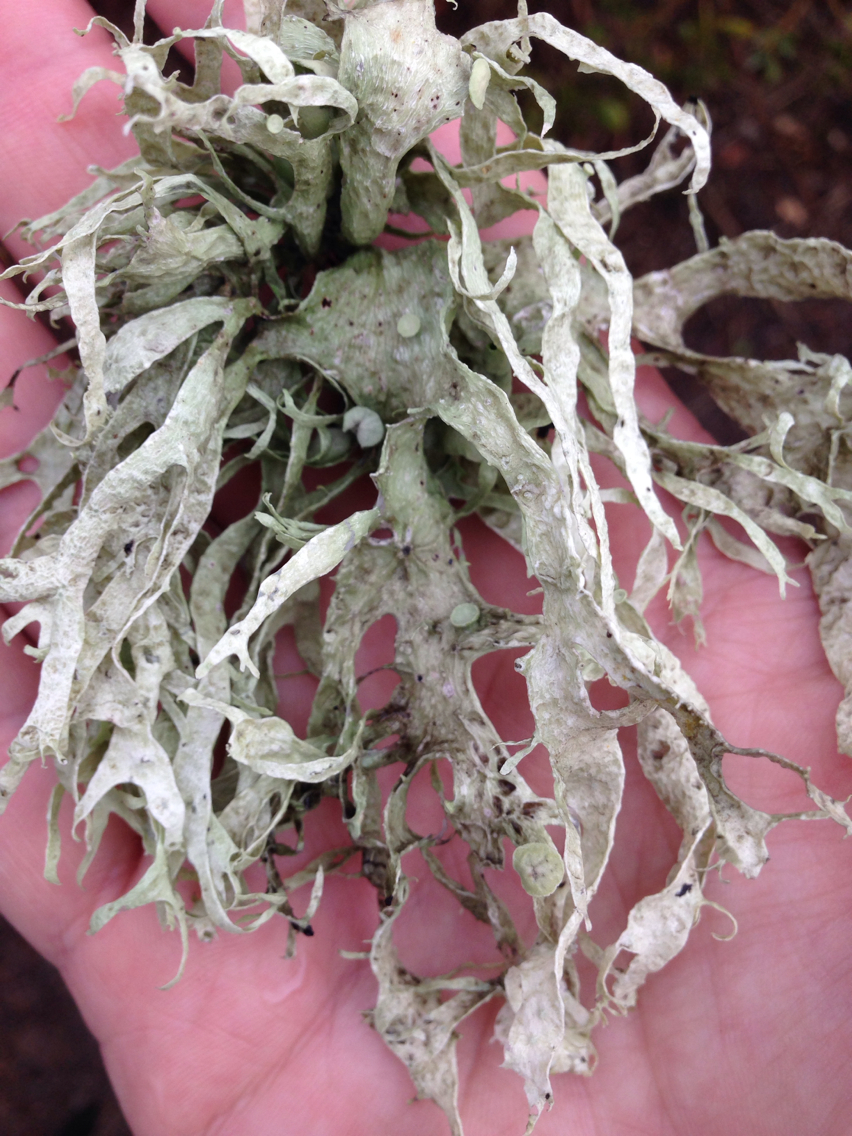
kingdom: Fungi
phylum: Ascomycota
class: Lecanoromycetes
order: Lecanorales
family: Ramalinaceae
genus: Ramalina
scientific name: Ramalina leptocarpha
